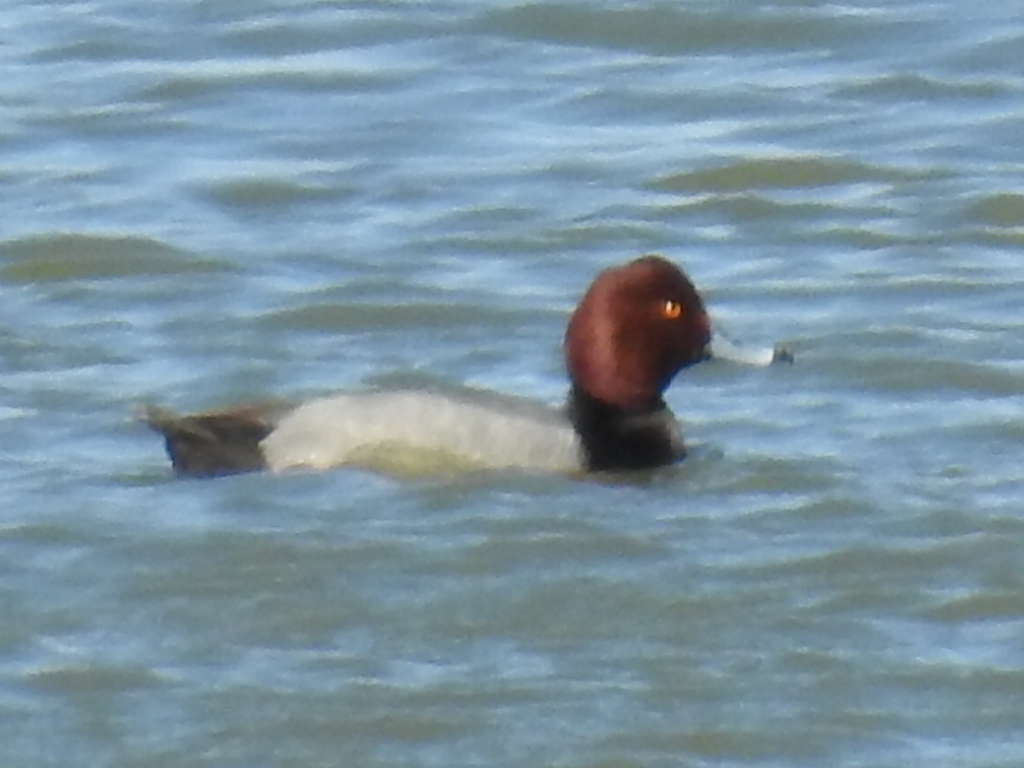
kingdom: Animalia
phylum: Chordata
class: Aves
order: Anseriformes
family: Anatidae
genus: Aythya
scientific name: Aythya americana
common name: Redhead
